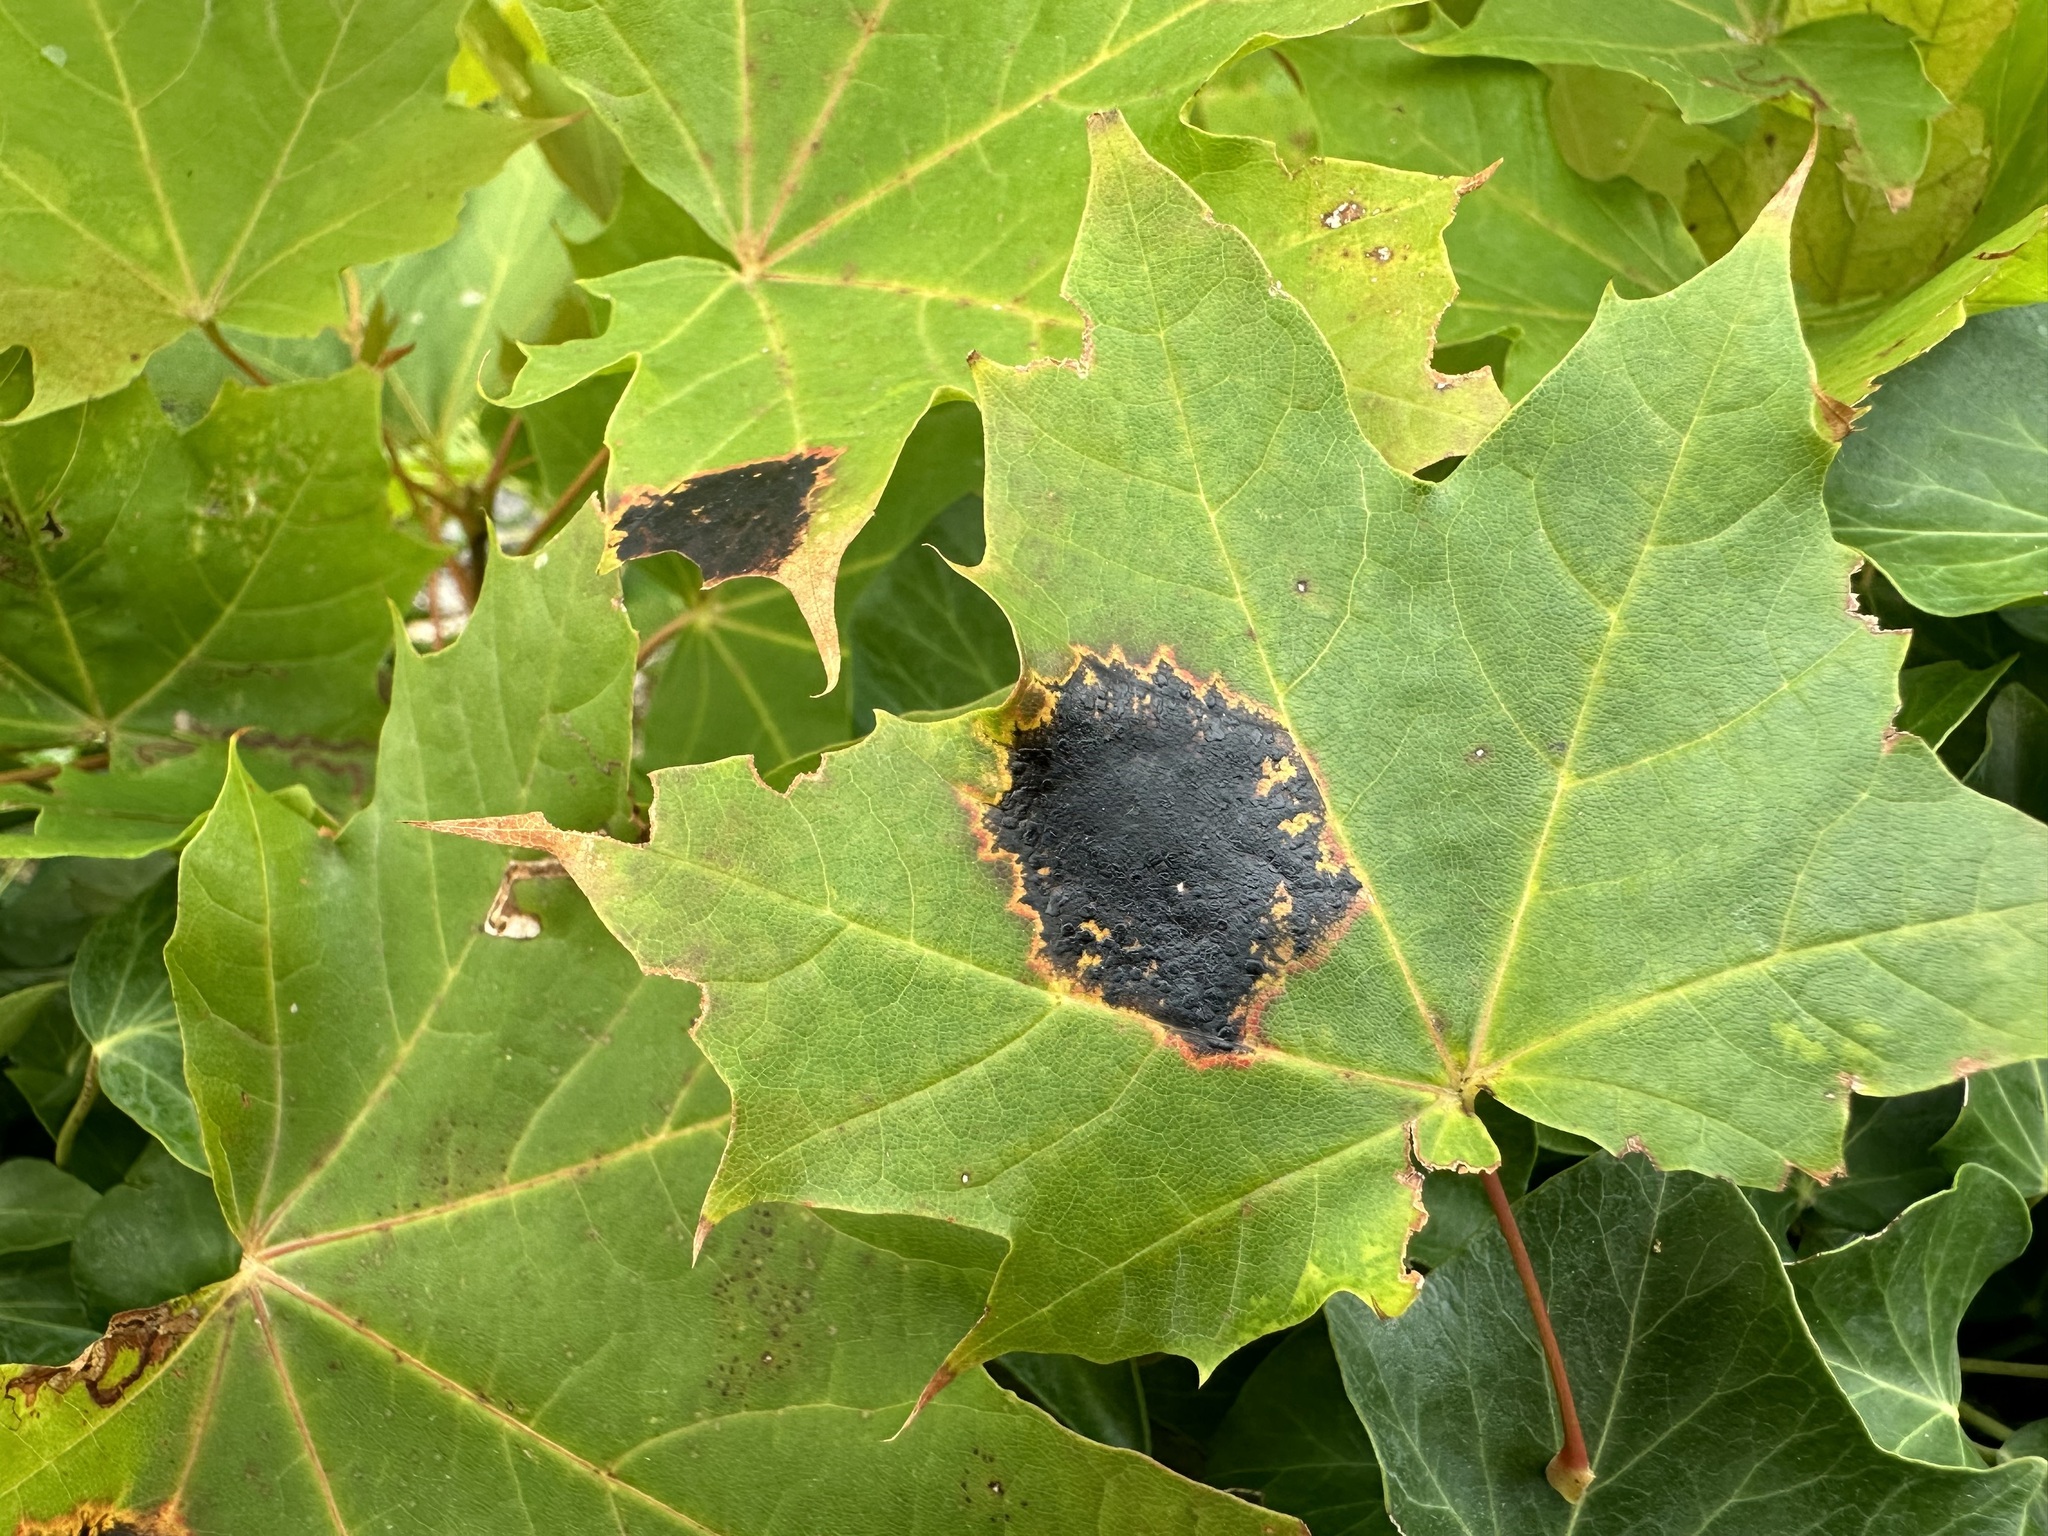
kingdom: Fungi
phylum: Ascomycota
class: Leotiomycetes
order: Rhytismatales
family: Rhytismataceae
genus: Rhytisma
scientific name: Rhytisma acerinum
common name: European tar spot
